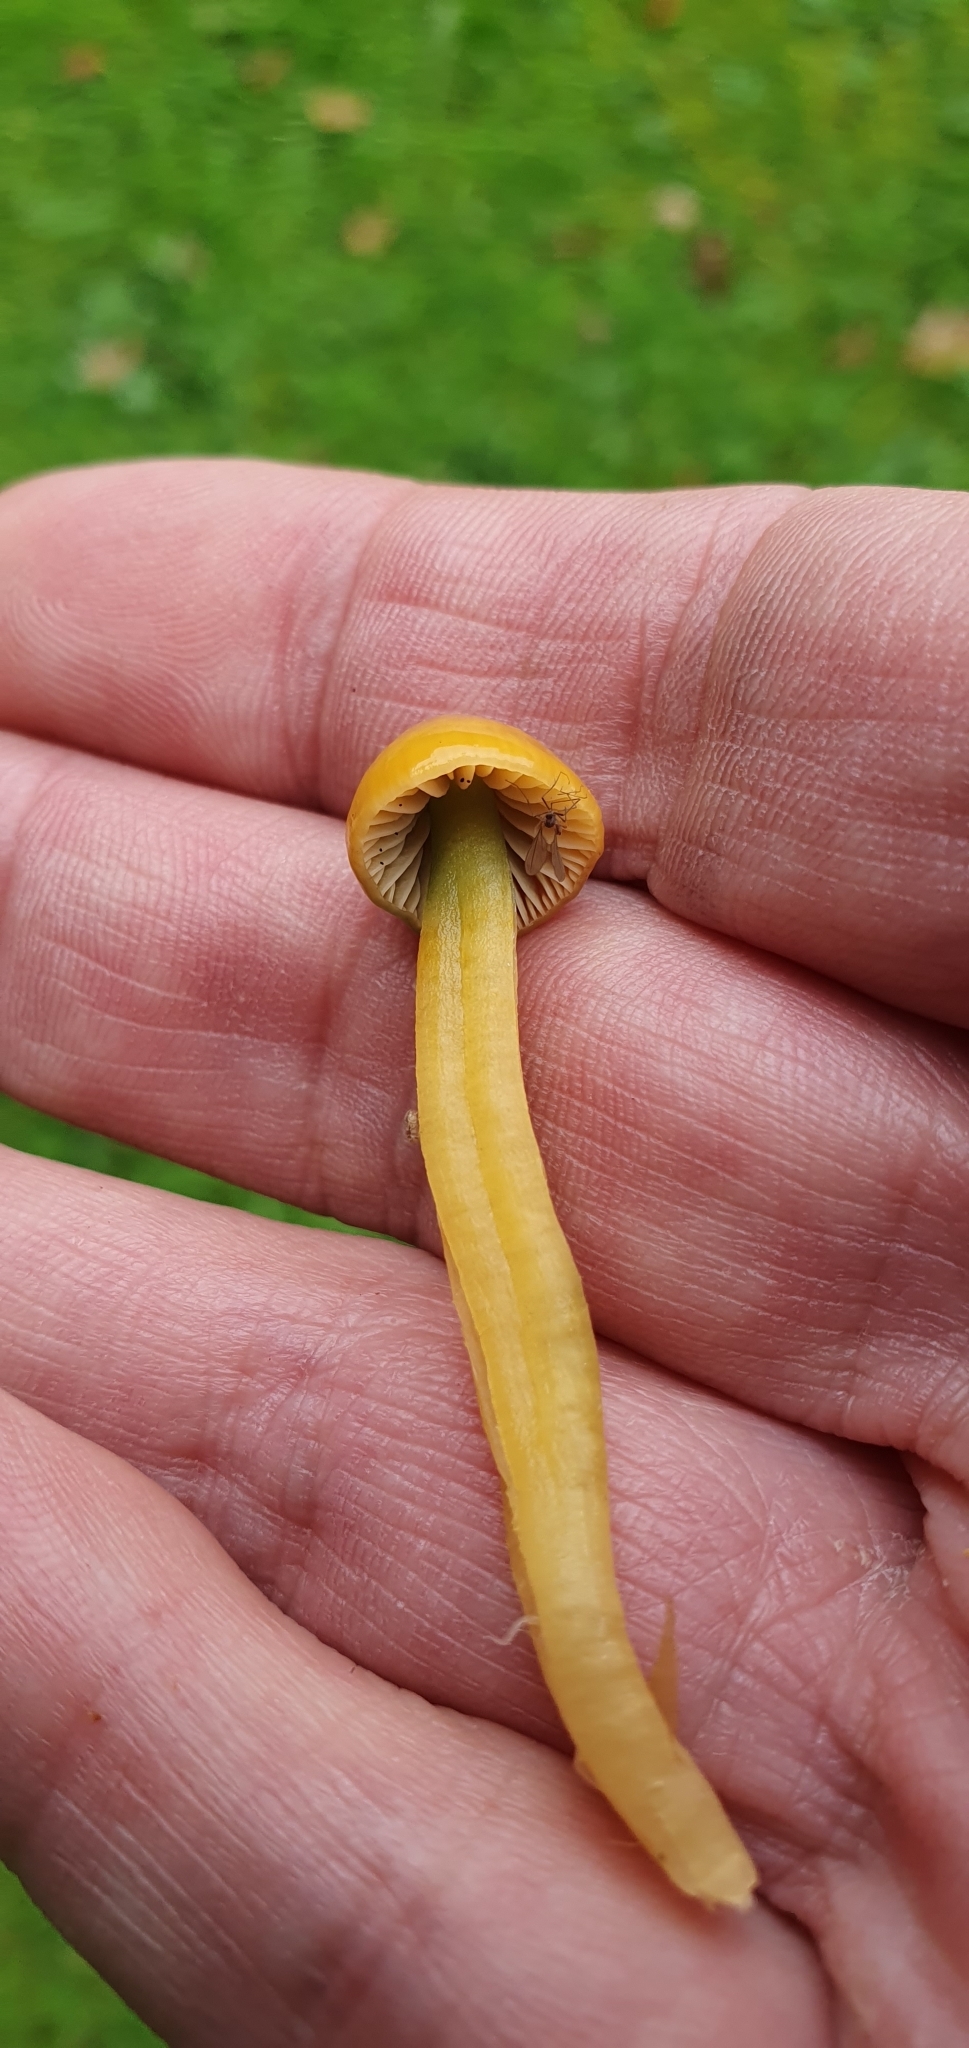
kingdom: Fungi
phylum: Basidiomycota
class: Agaricomycetes
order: Agaricales
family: Hygrophoraceae
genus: Gliophorus
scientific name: Gliophorus psittacinus
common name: Parrot wax-cap
